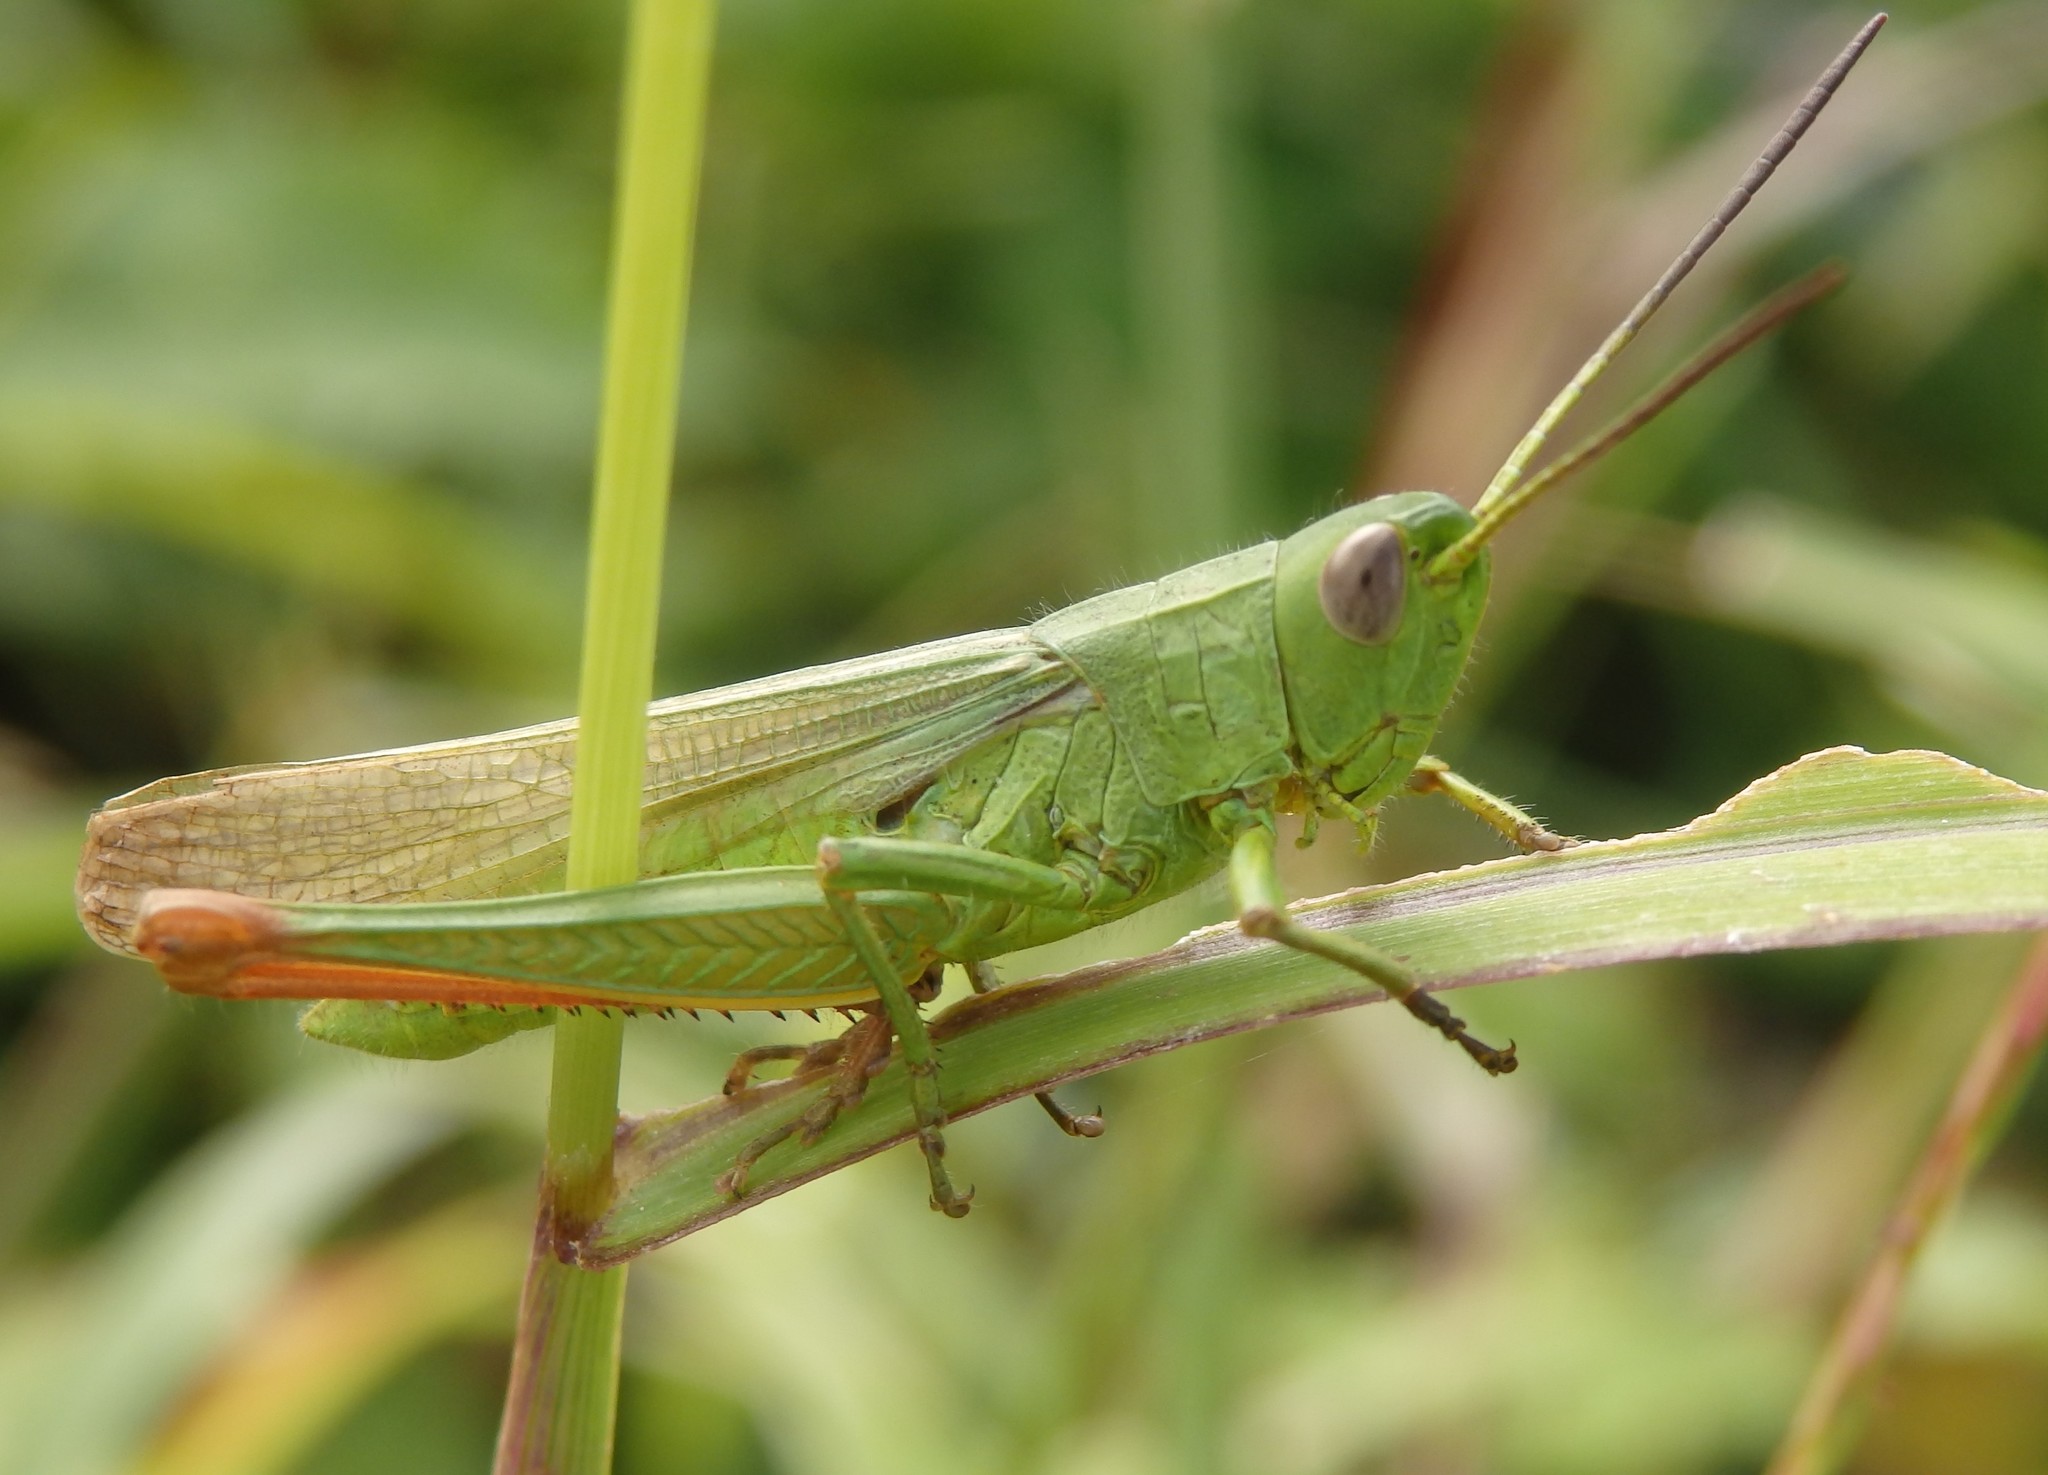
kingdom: Animalia
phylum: Arthropoda
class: Insecta
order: Orthoptera
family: Acrididae
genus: Chorthippus
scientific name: Chorthippus jucundus
